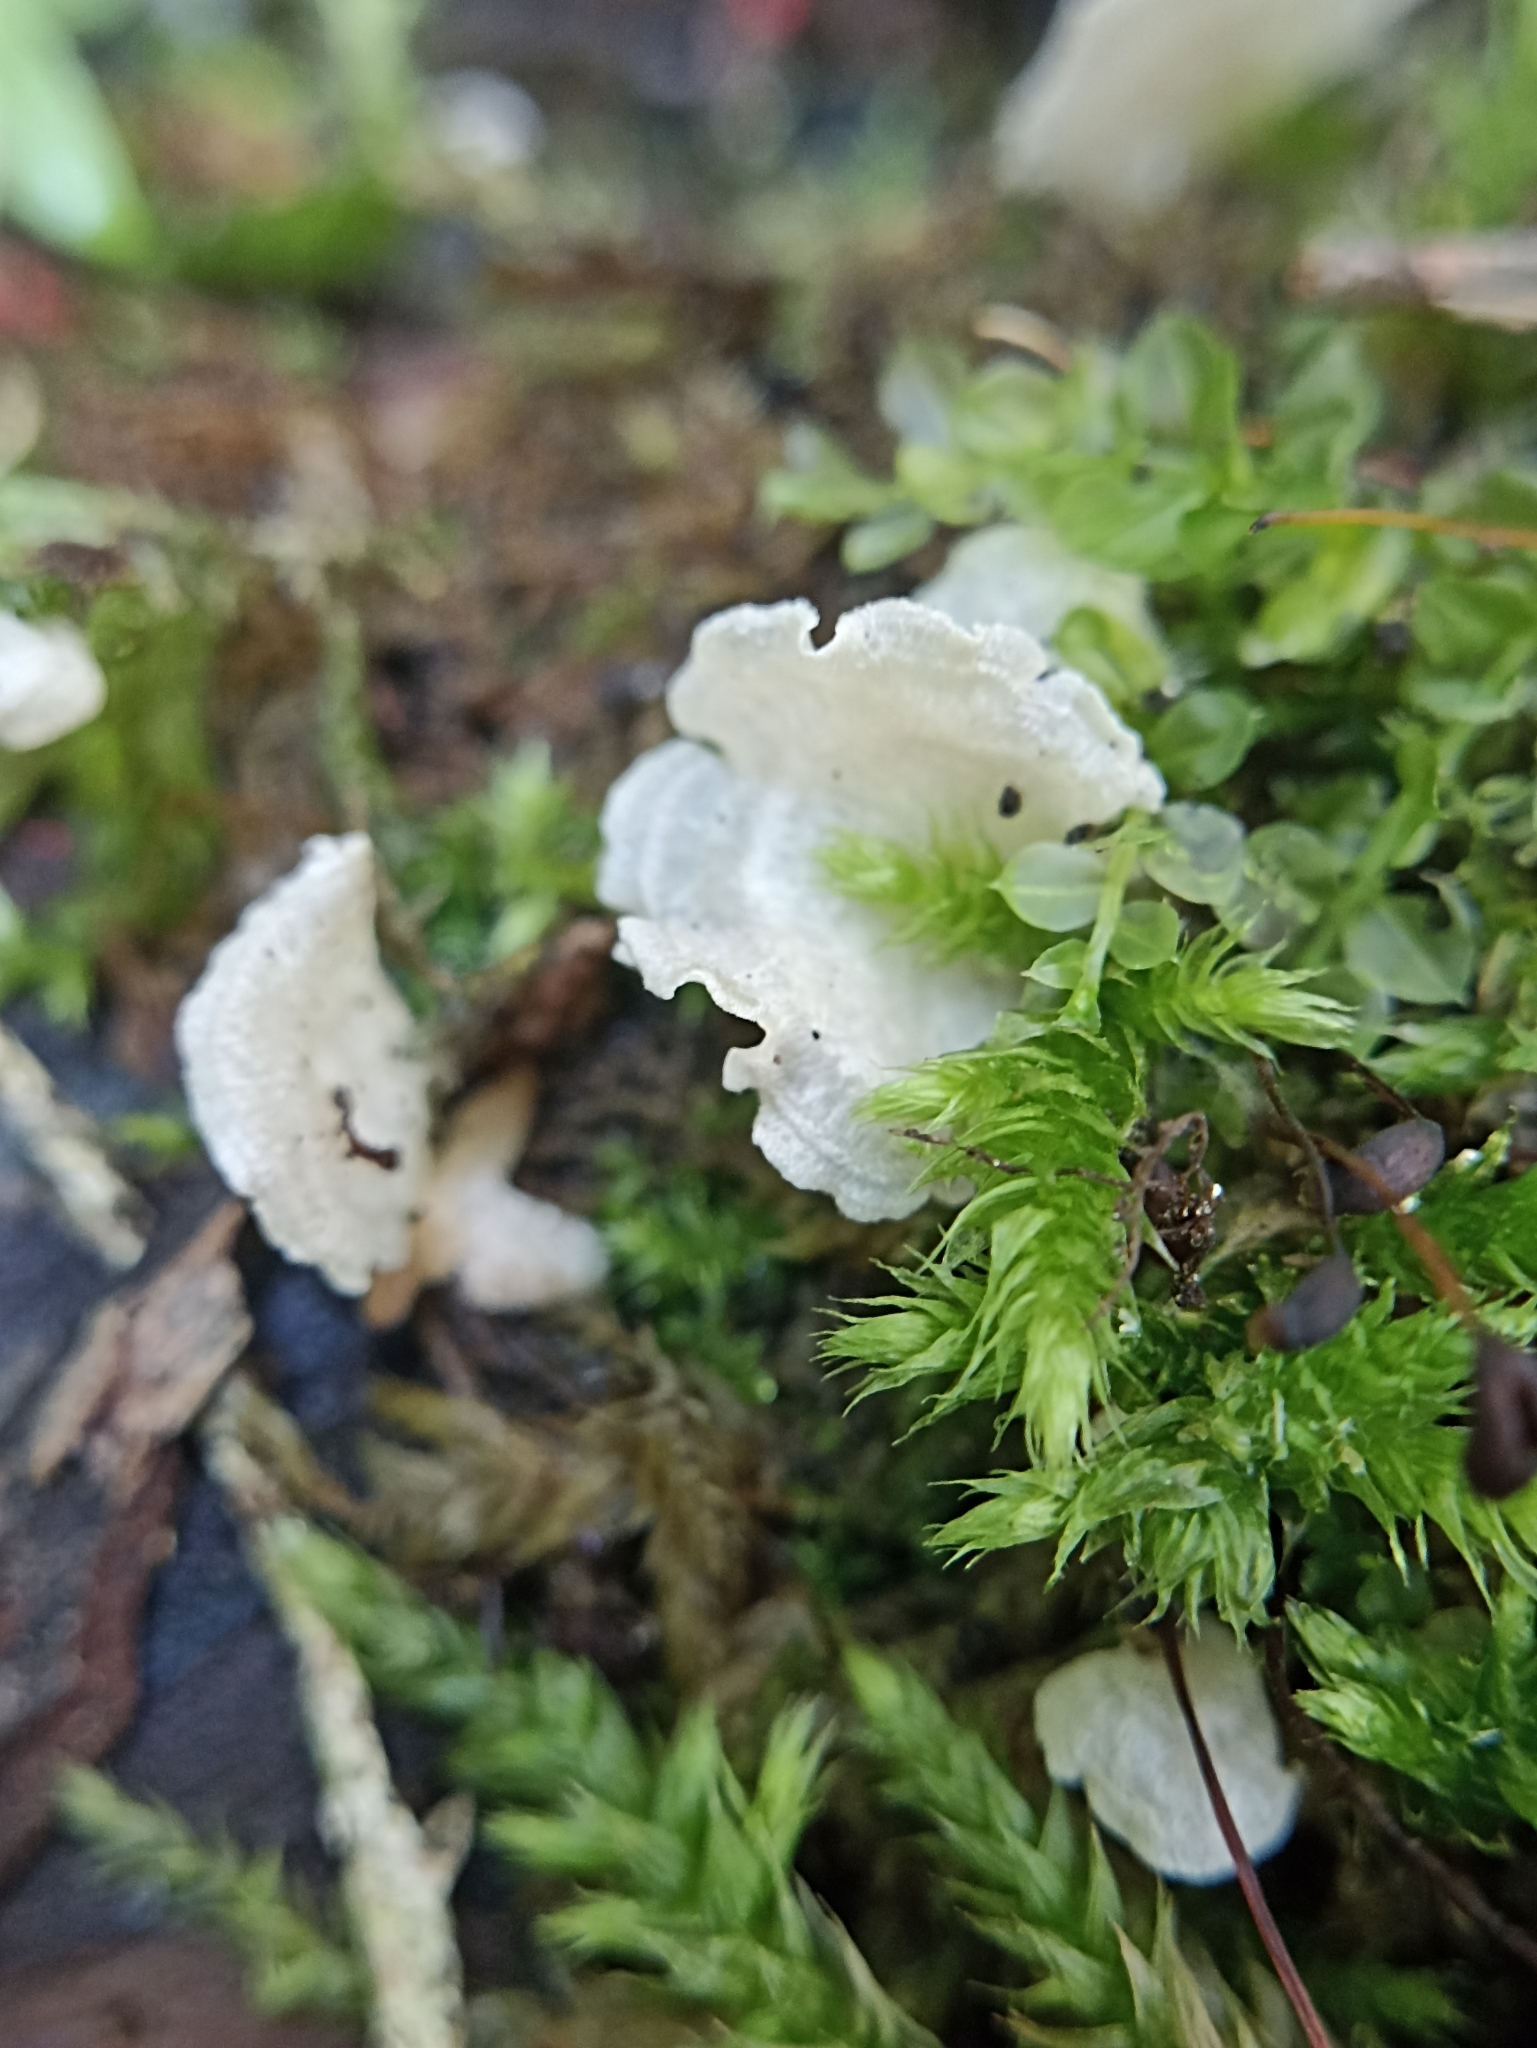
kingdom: Fungi
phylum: Basidiomycota
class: Agaricomycetes
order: Agaricales
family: Hygrophoraceae
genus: Arrhenia
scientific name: Arrhenia retiruga
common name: Small moss oysterling
